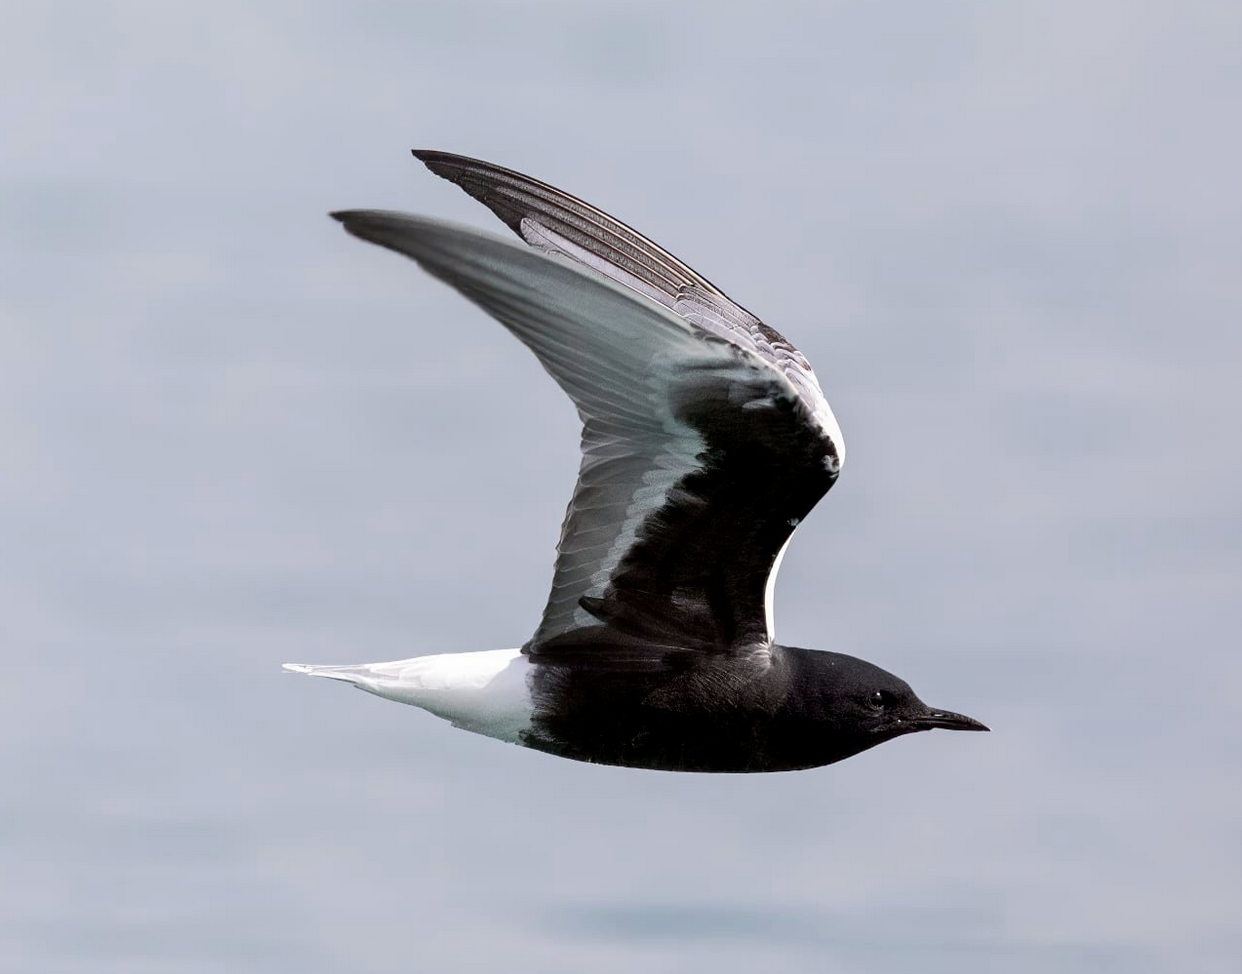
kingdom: Animalia
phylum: Chordata
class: Aves
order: Charadriiformes
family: Laridae
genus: Chlidonias
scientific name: Chlidonias leucopterus
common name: White-winged tern
